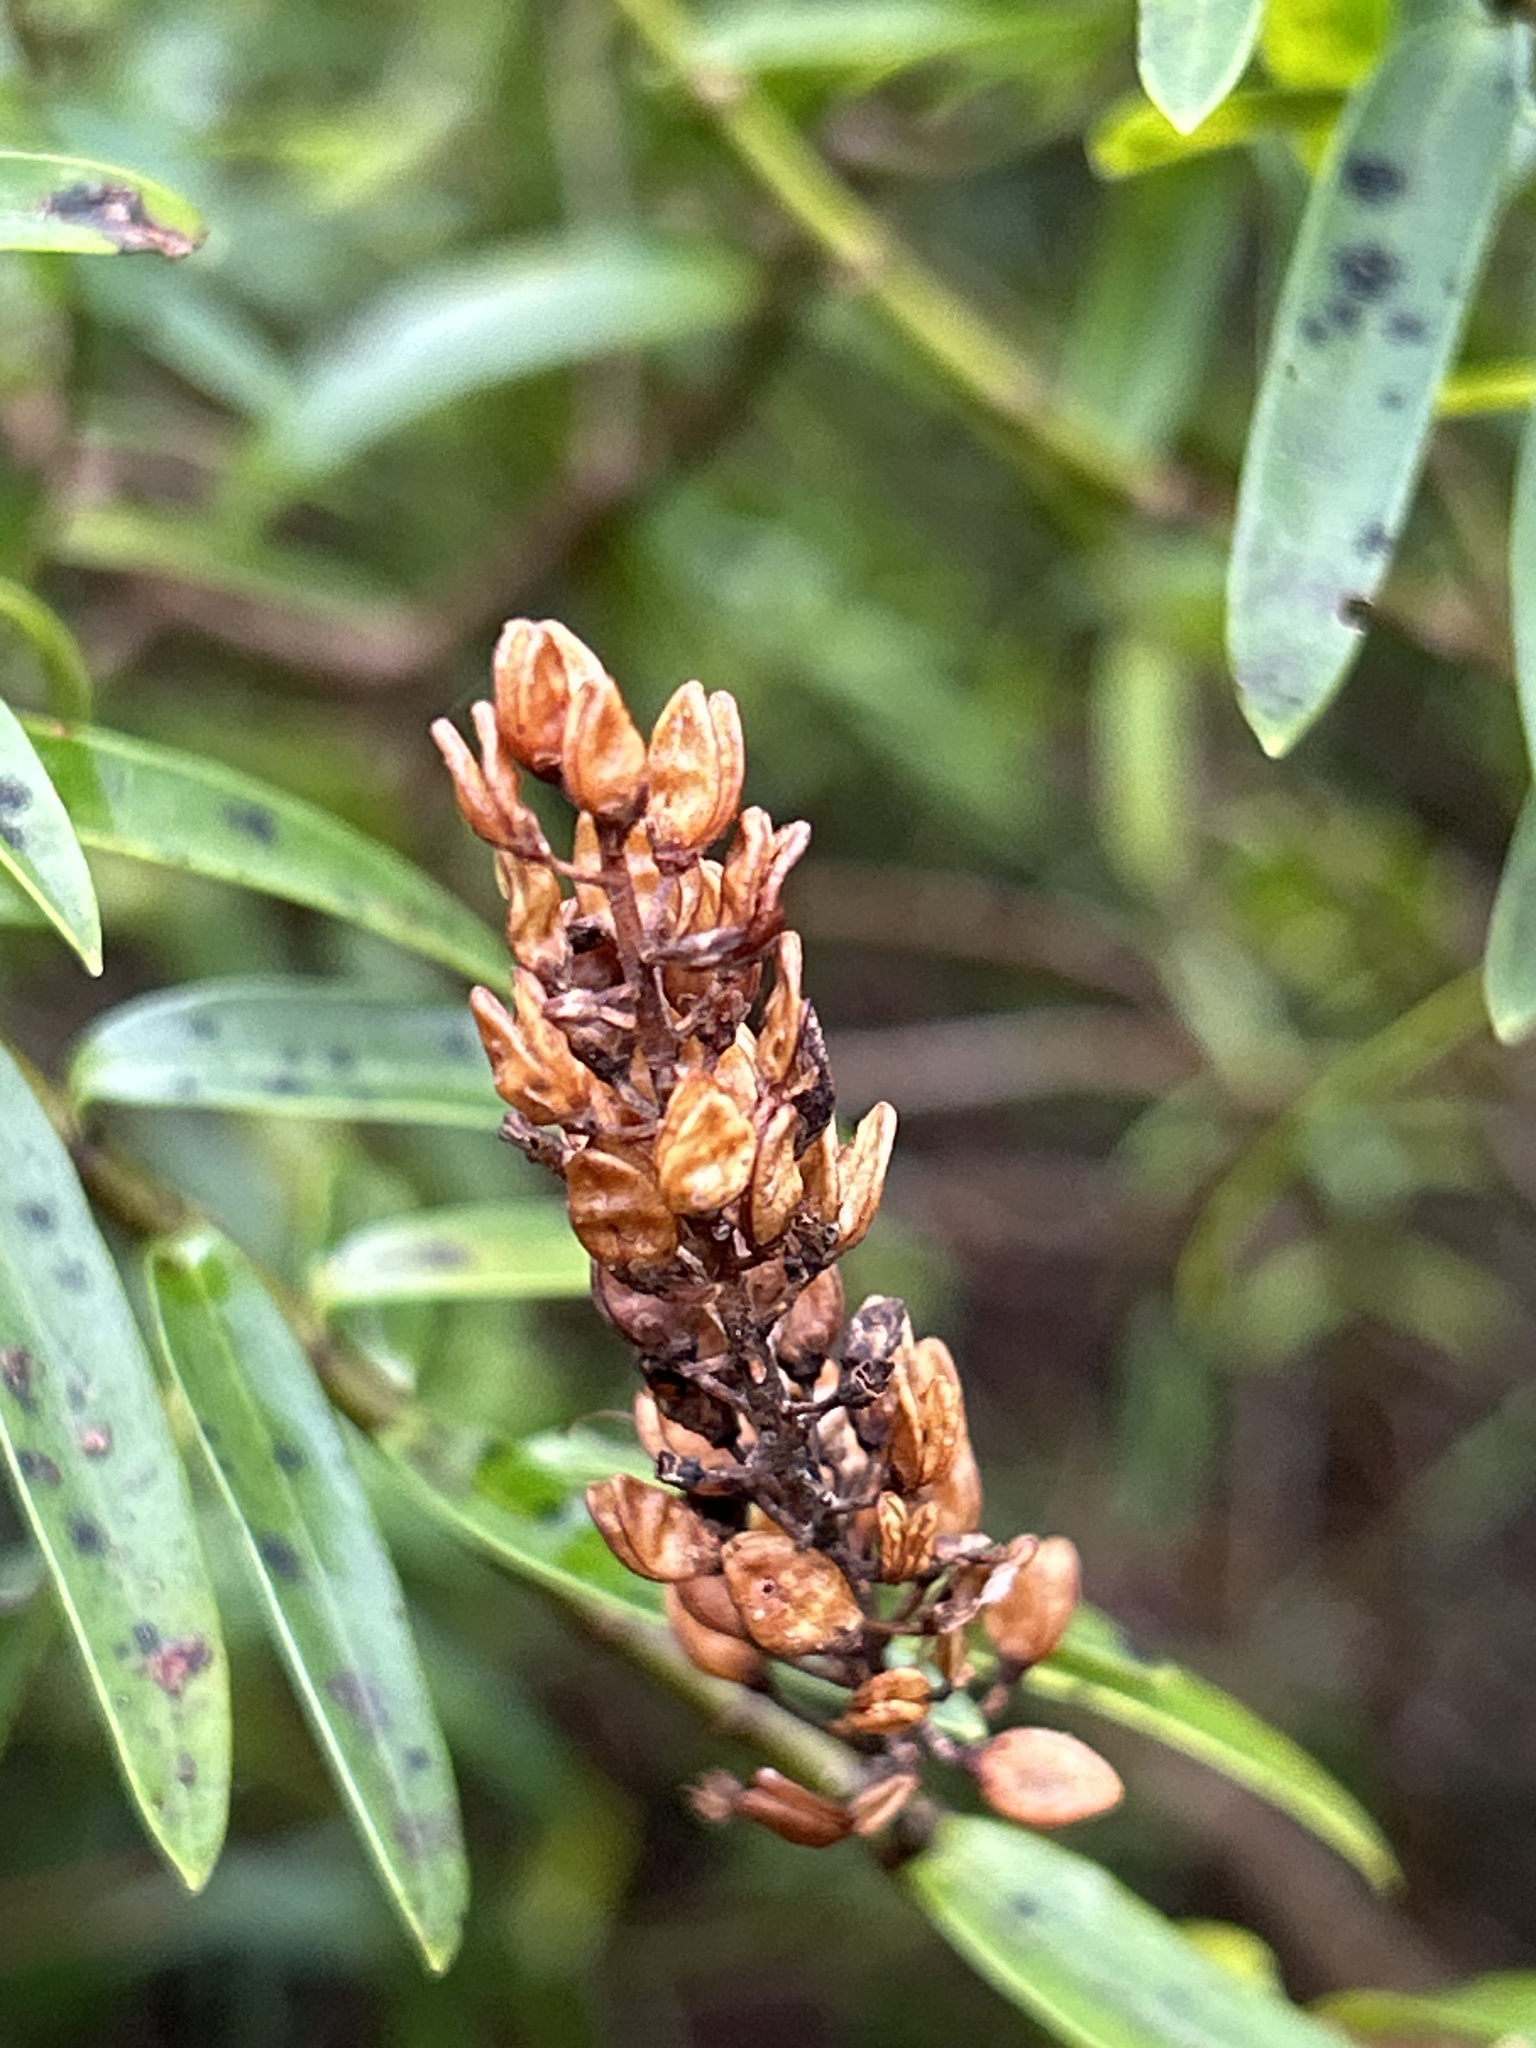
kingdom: Plantae
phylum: Tracheophyta
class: Magnoliopsida
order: Lamiales
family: Plantaginaceae
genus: Veronica
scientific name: Veronica strictissima
